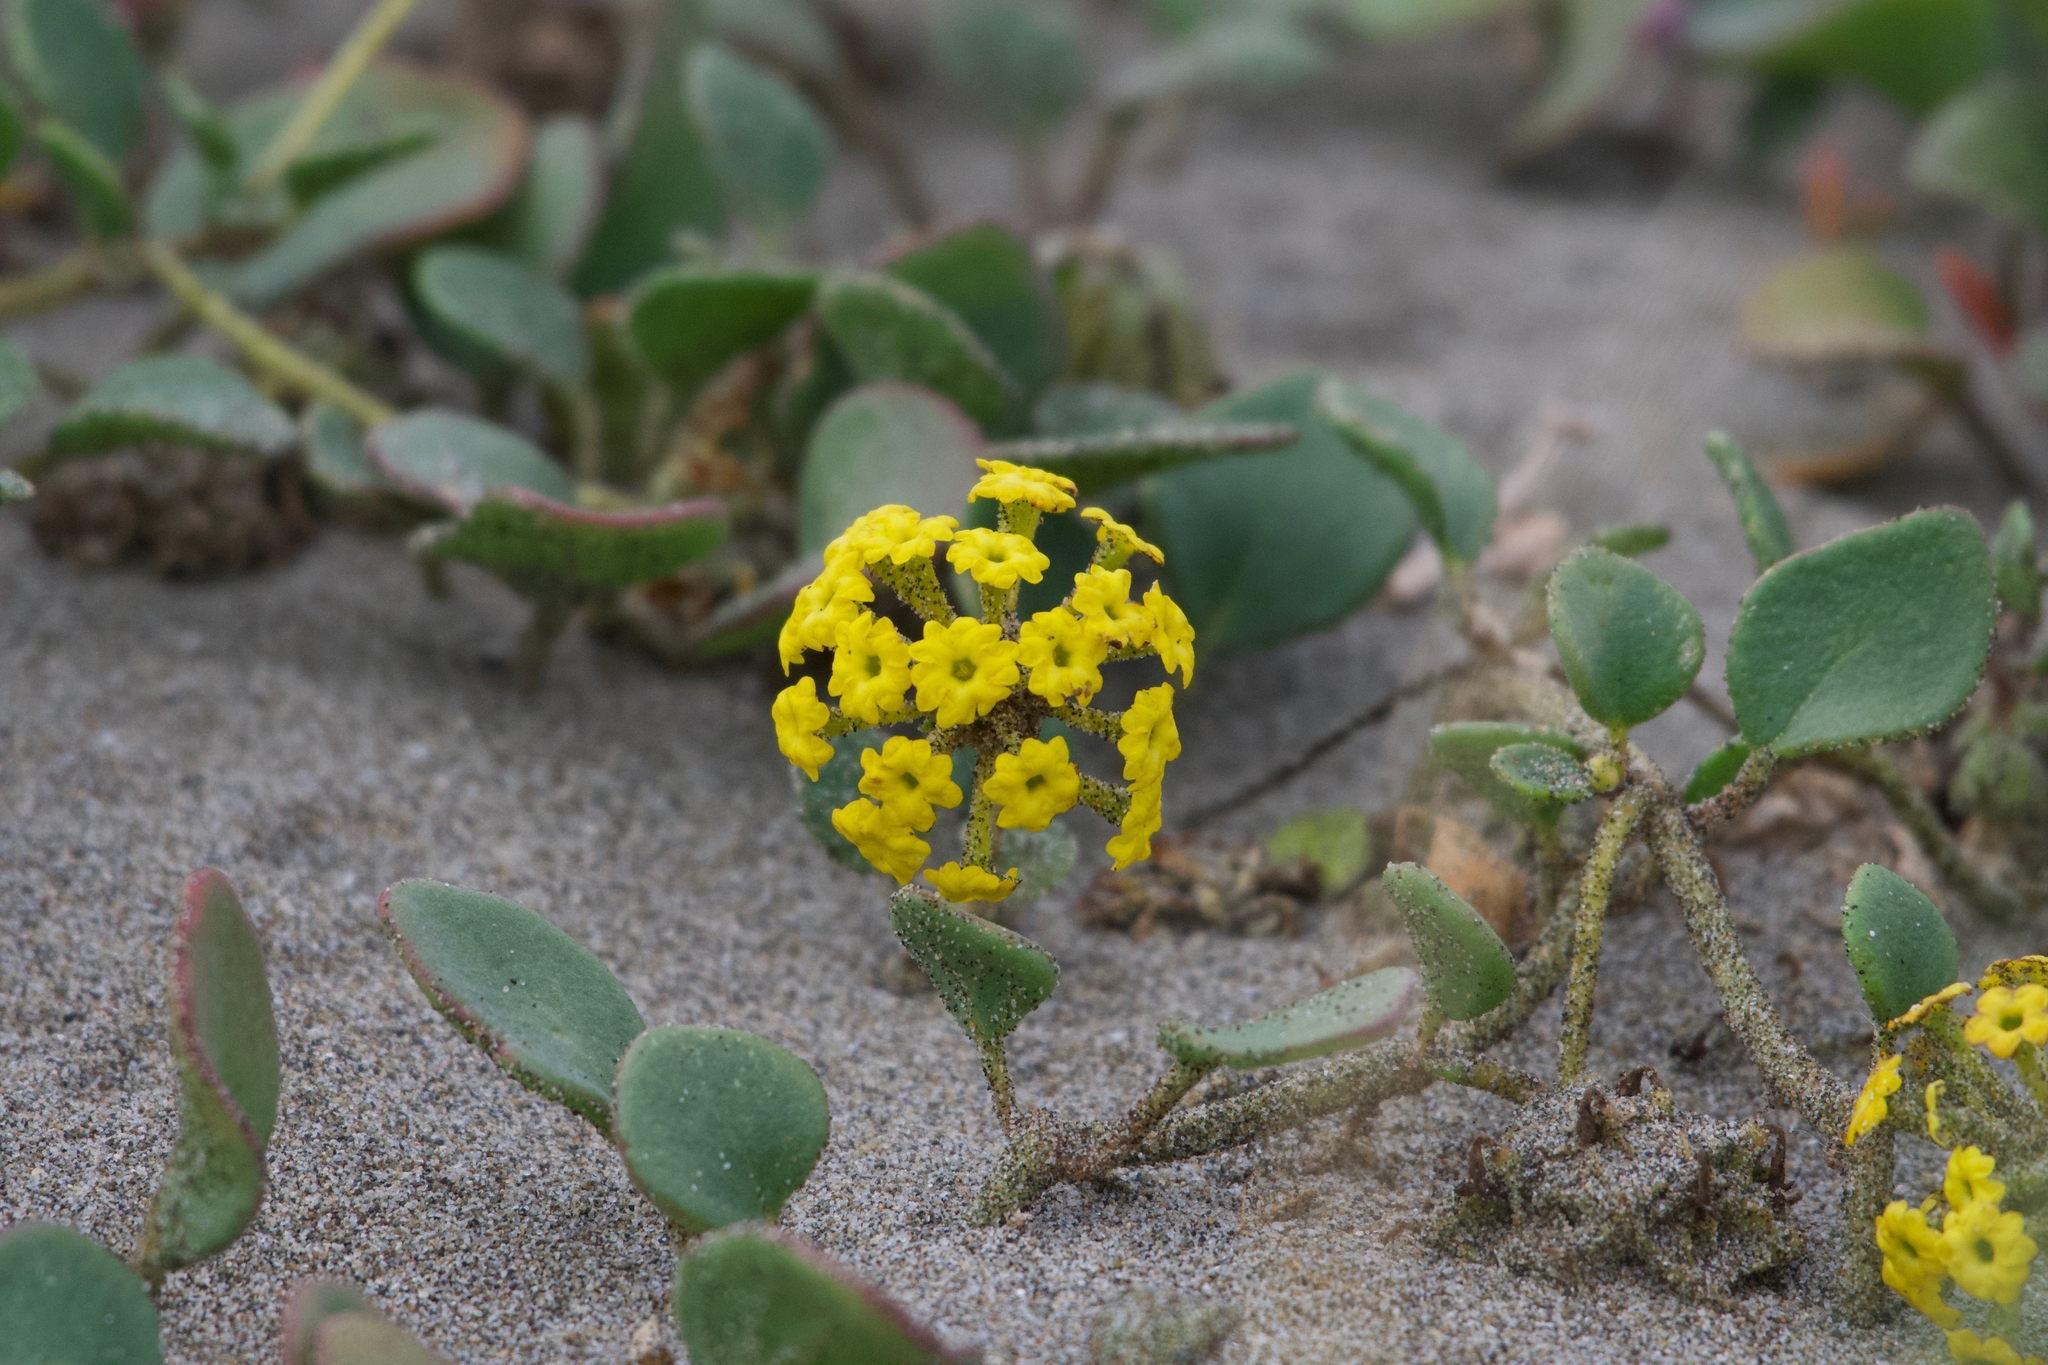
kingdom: Plantae
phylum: Tracheophyta
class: Magnoliopsida
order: Caryophyllales
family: Nyctaginaceae
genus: Abronia
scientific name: Abronia latifolia
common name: Yellow sand-verbena
